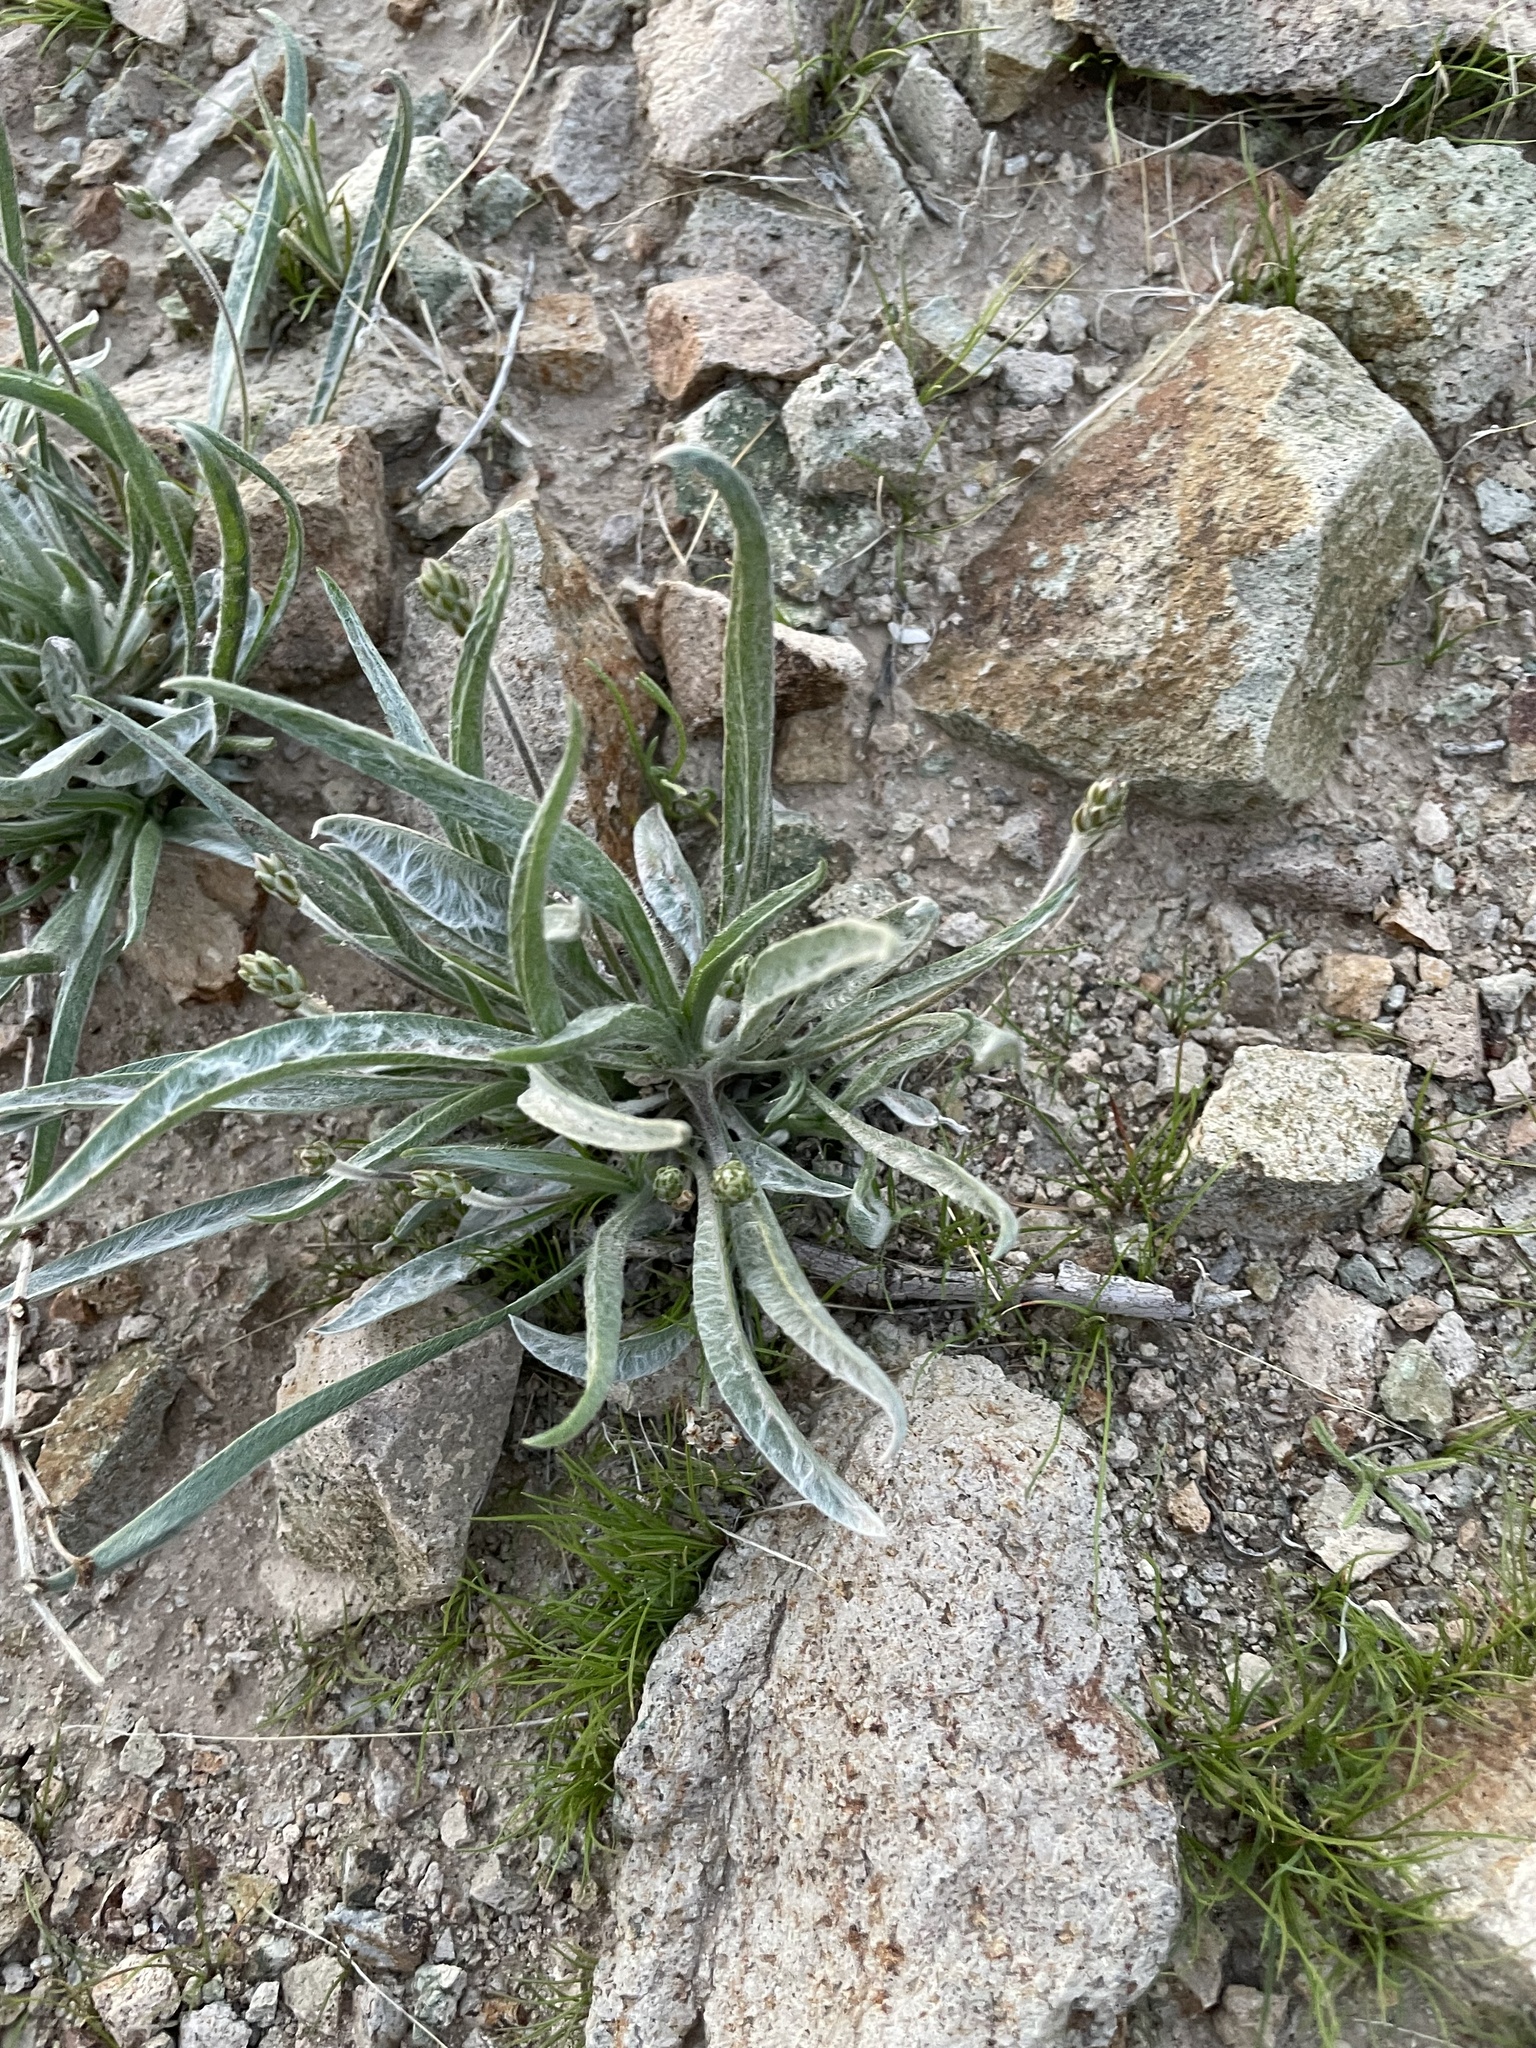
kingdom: Plantae
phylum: Tracheophyta
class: Magnoliopsida
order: Lamiales
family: Plantaginaceae
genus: Plantago
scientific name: Plantago ovata
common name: Blond plantain
